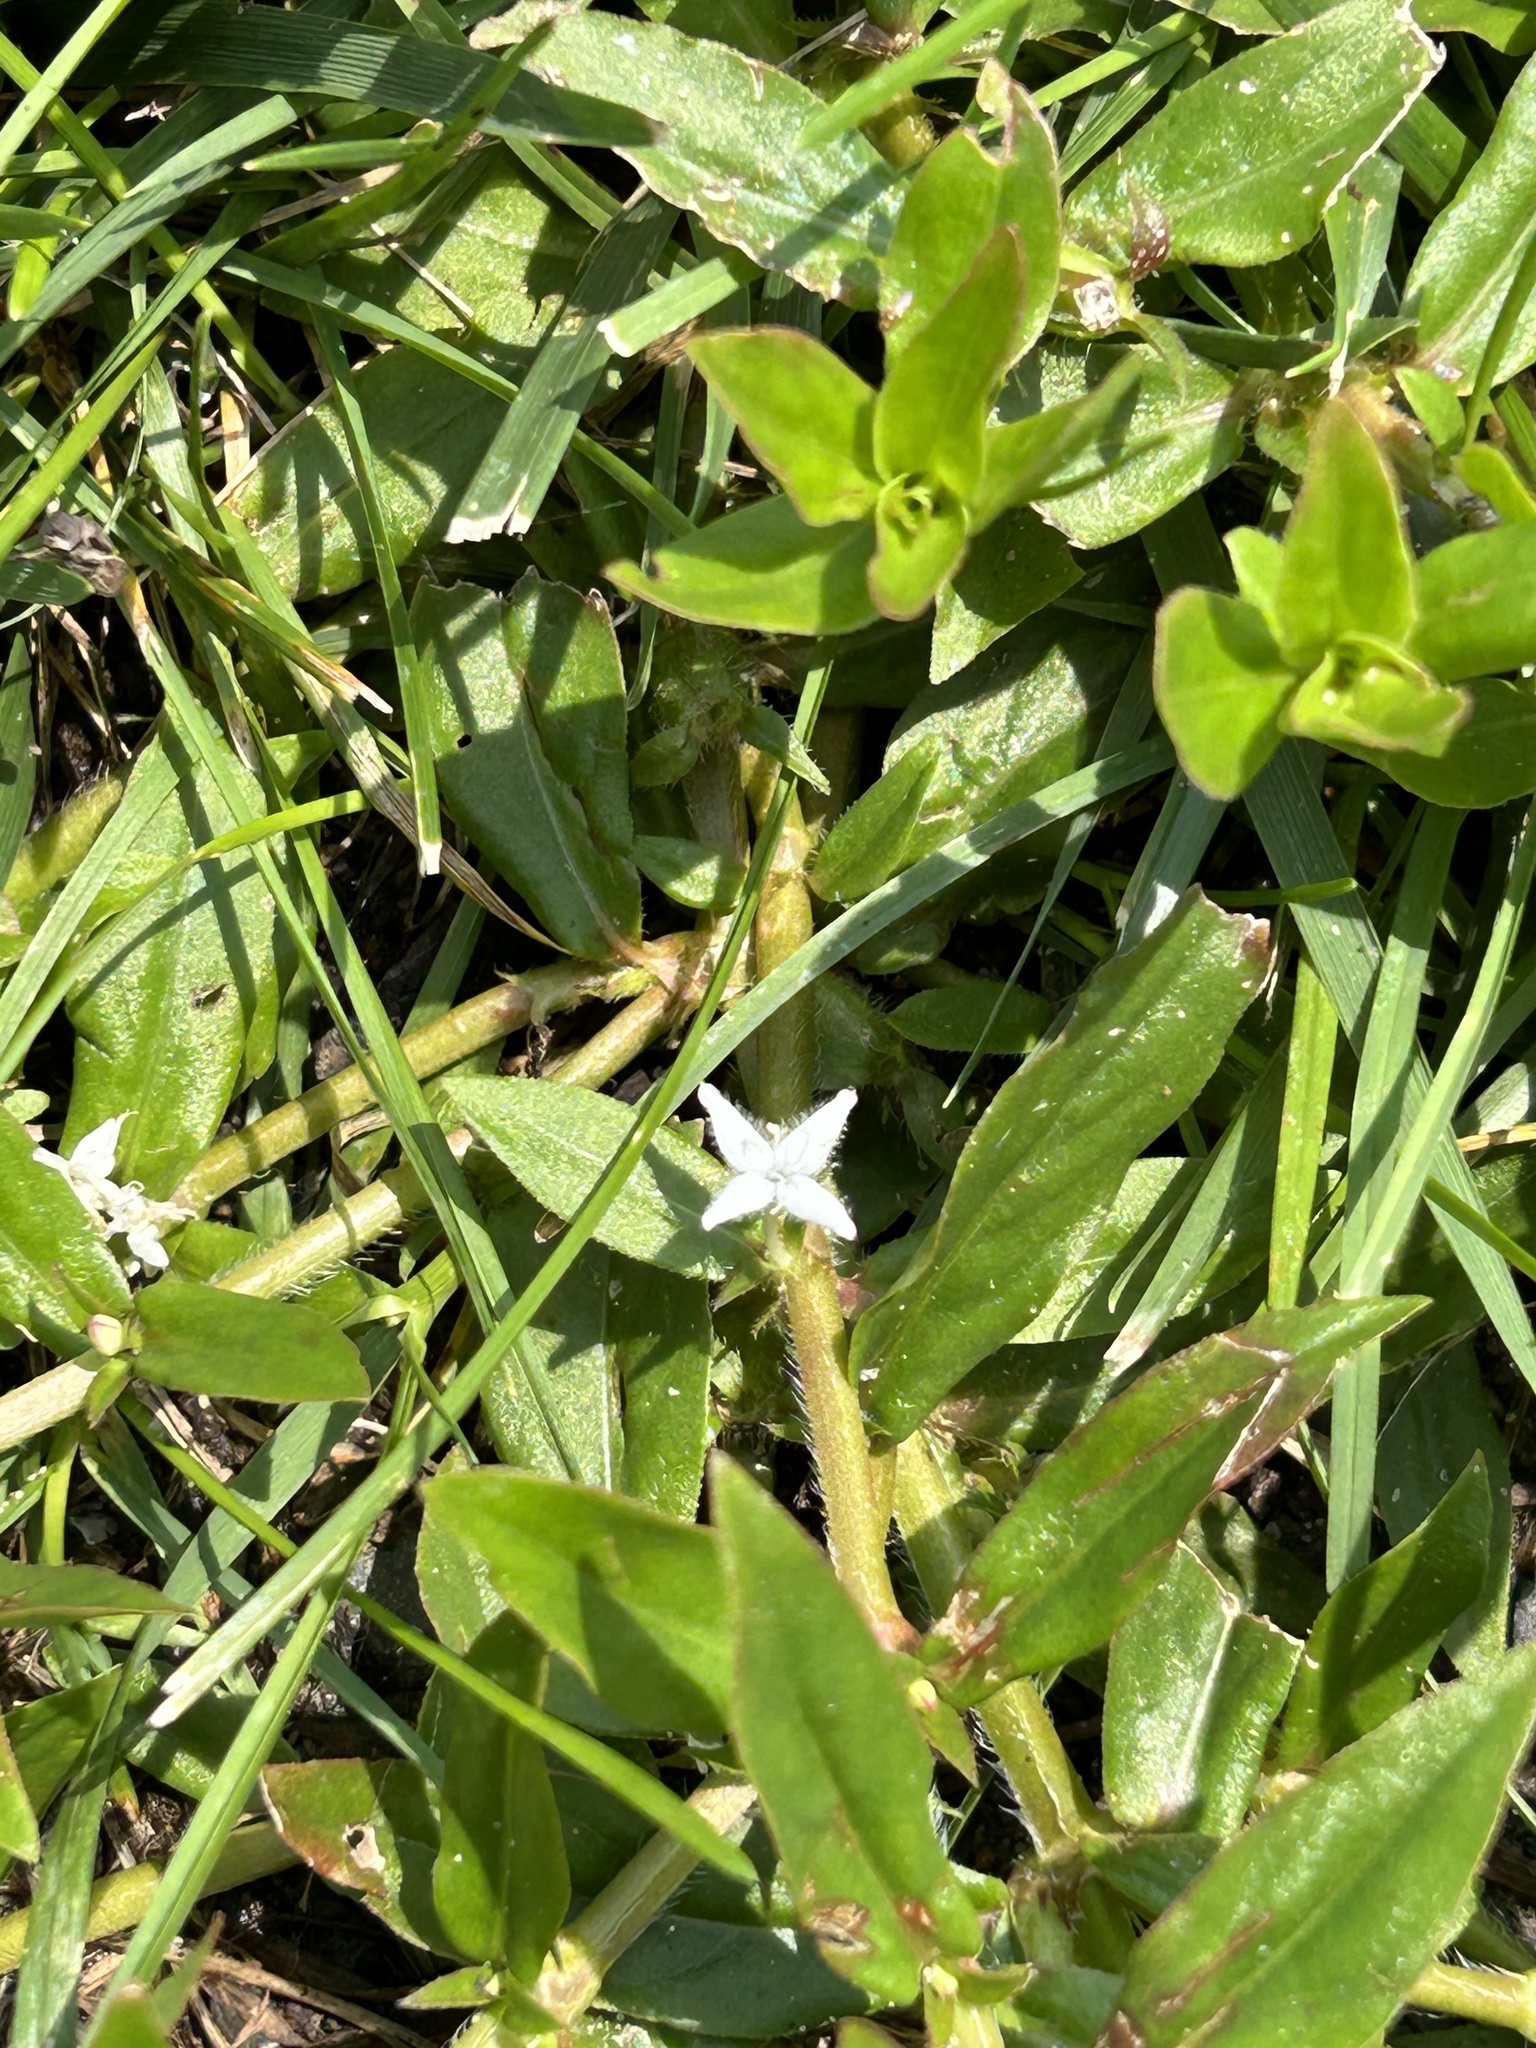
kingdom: Plantae
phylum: Tracheophyta
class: Magnoliopsida
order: Gentianales
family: Rubiaceae
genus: Diodia
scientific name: Diodia virginiana
